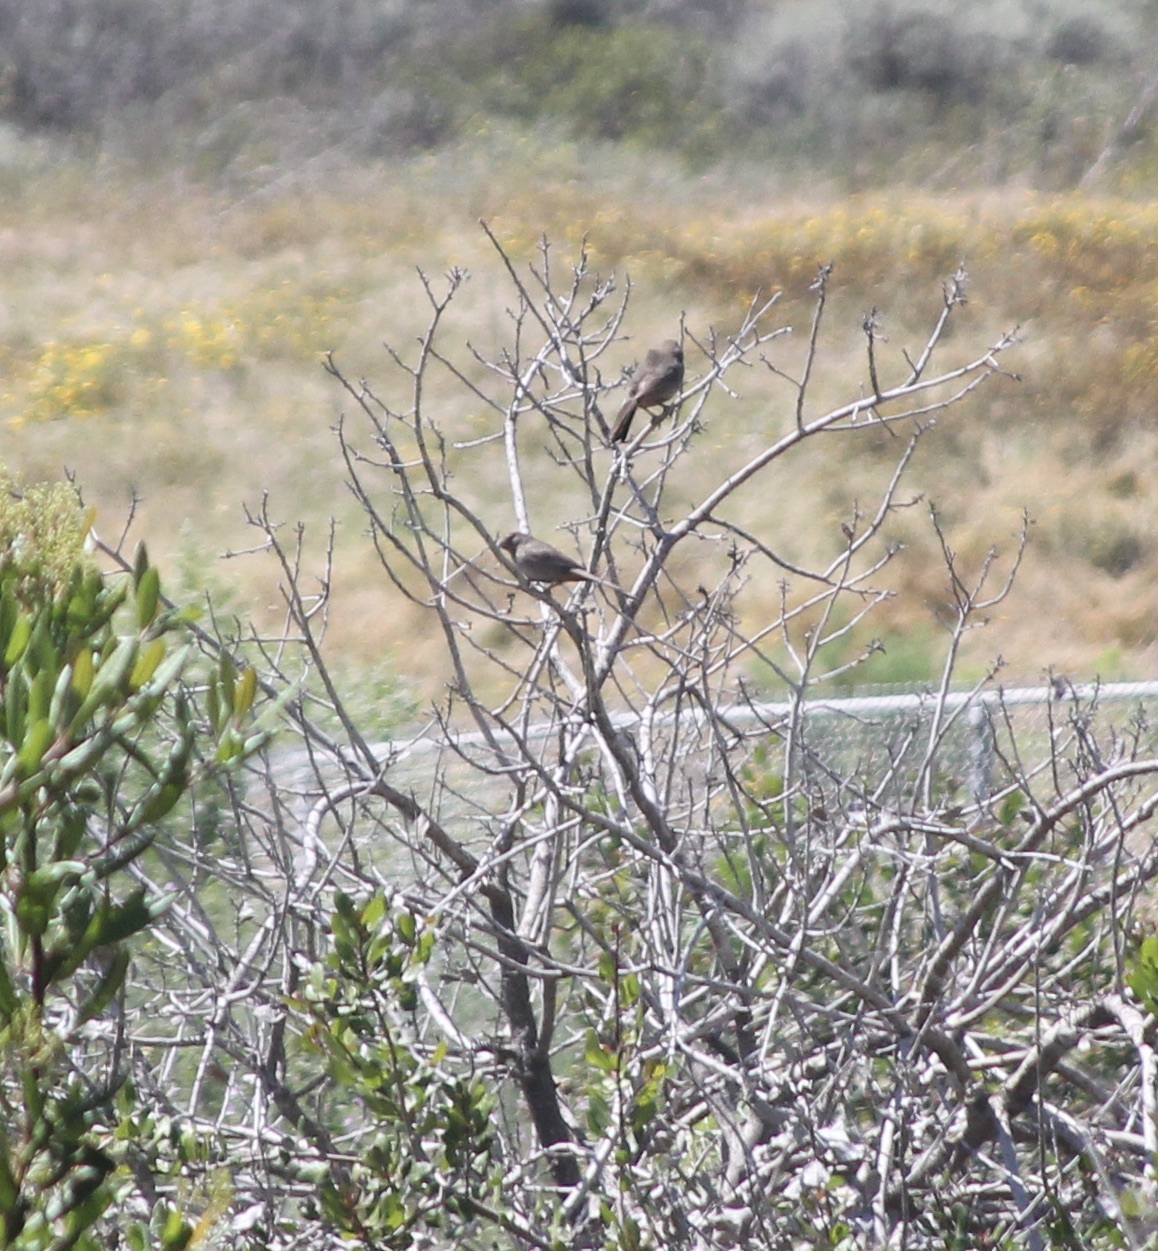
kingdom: Animalia
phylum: Chordata
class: Aves
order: Passeriformes
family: Passerellidae
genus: Melozone
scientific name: Melozone crissalis
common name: California towhee
